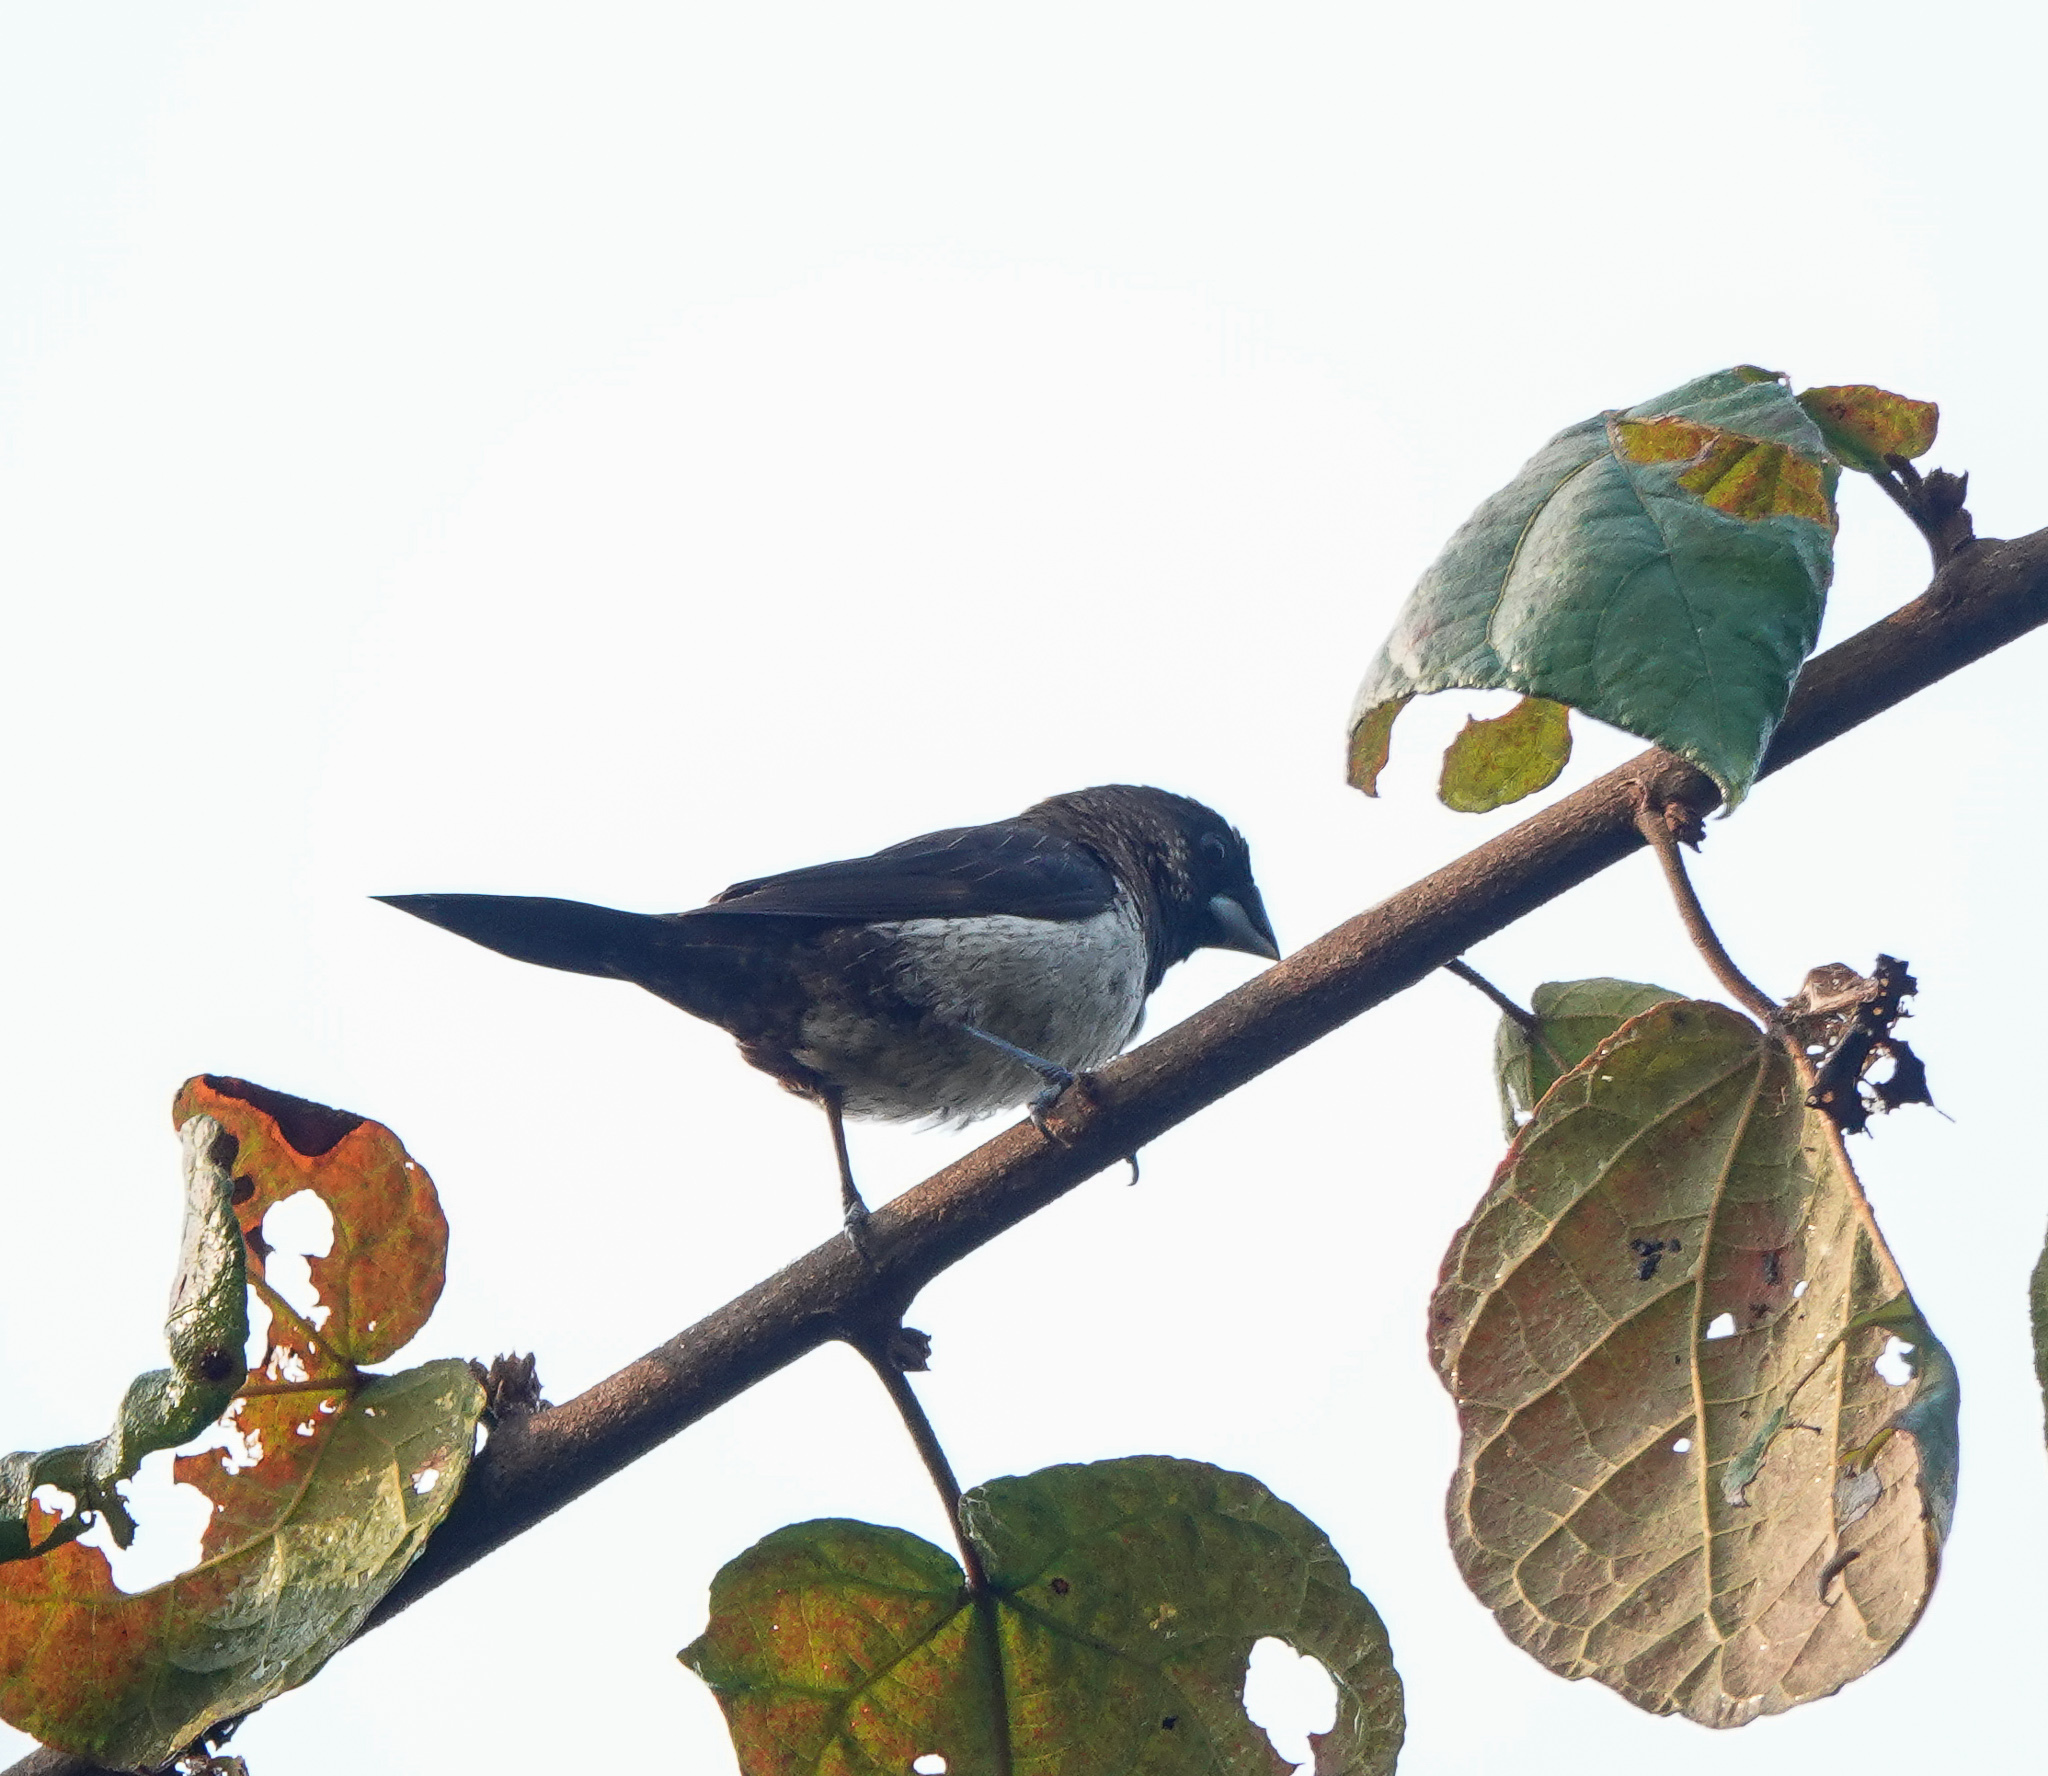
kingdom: Animalia
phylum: Chordata
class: Aves
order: Passeriformes
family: Estrildidae
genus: Lonchura
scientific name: Lonchura striata
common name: White-rumped munia
